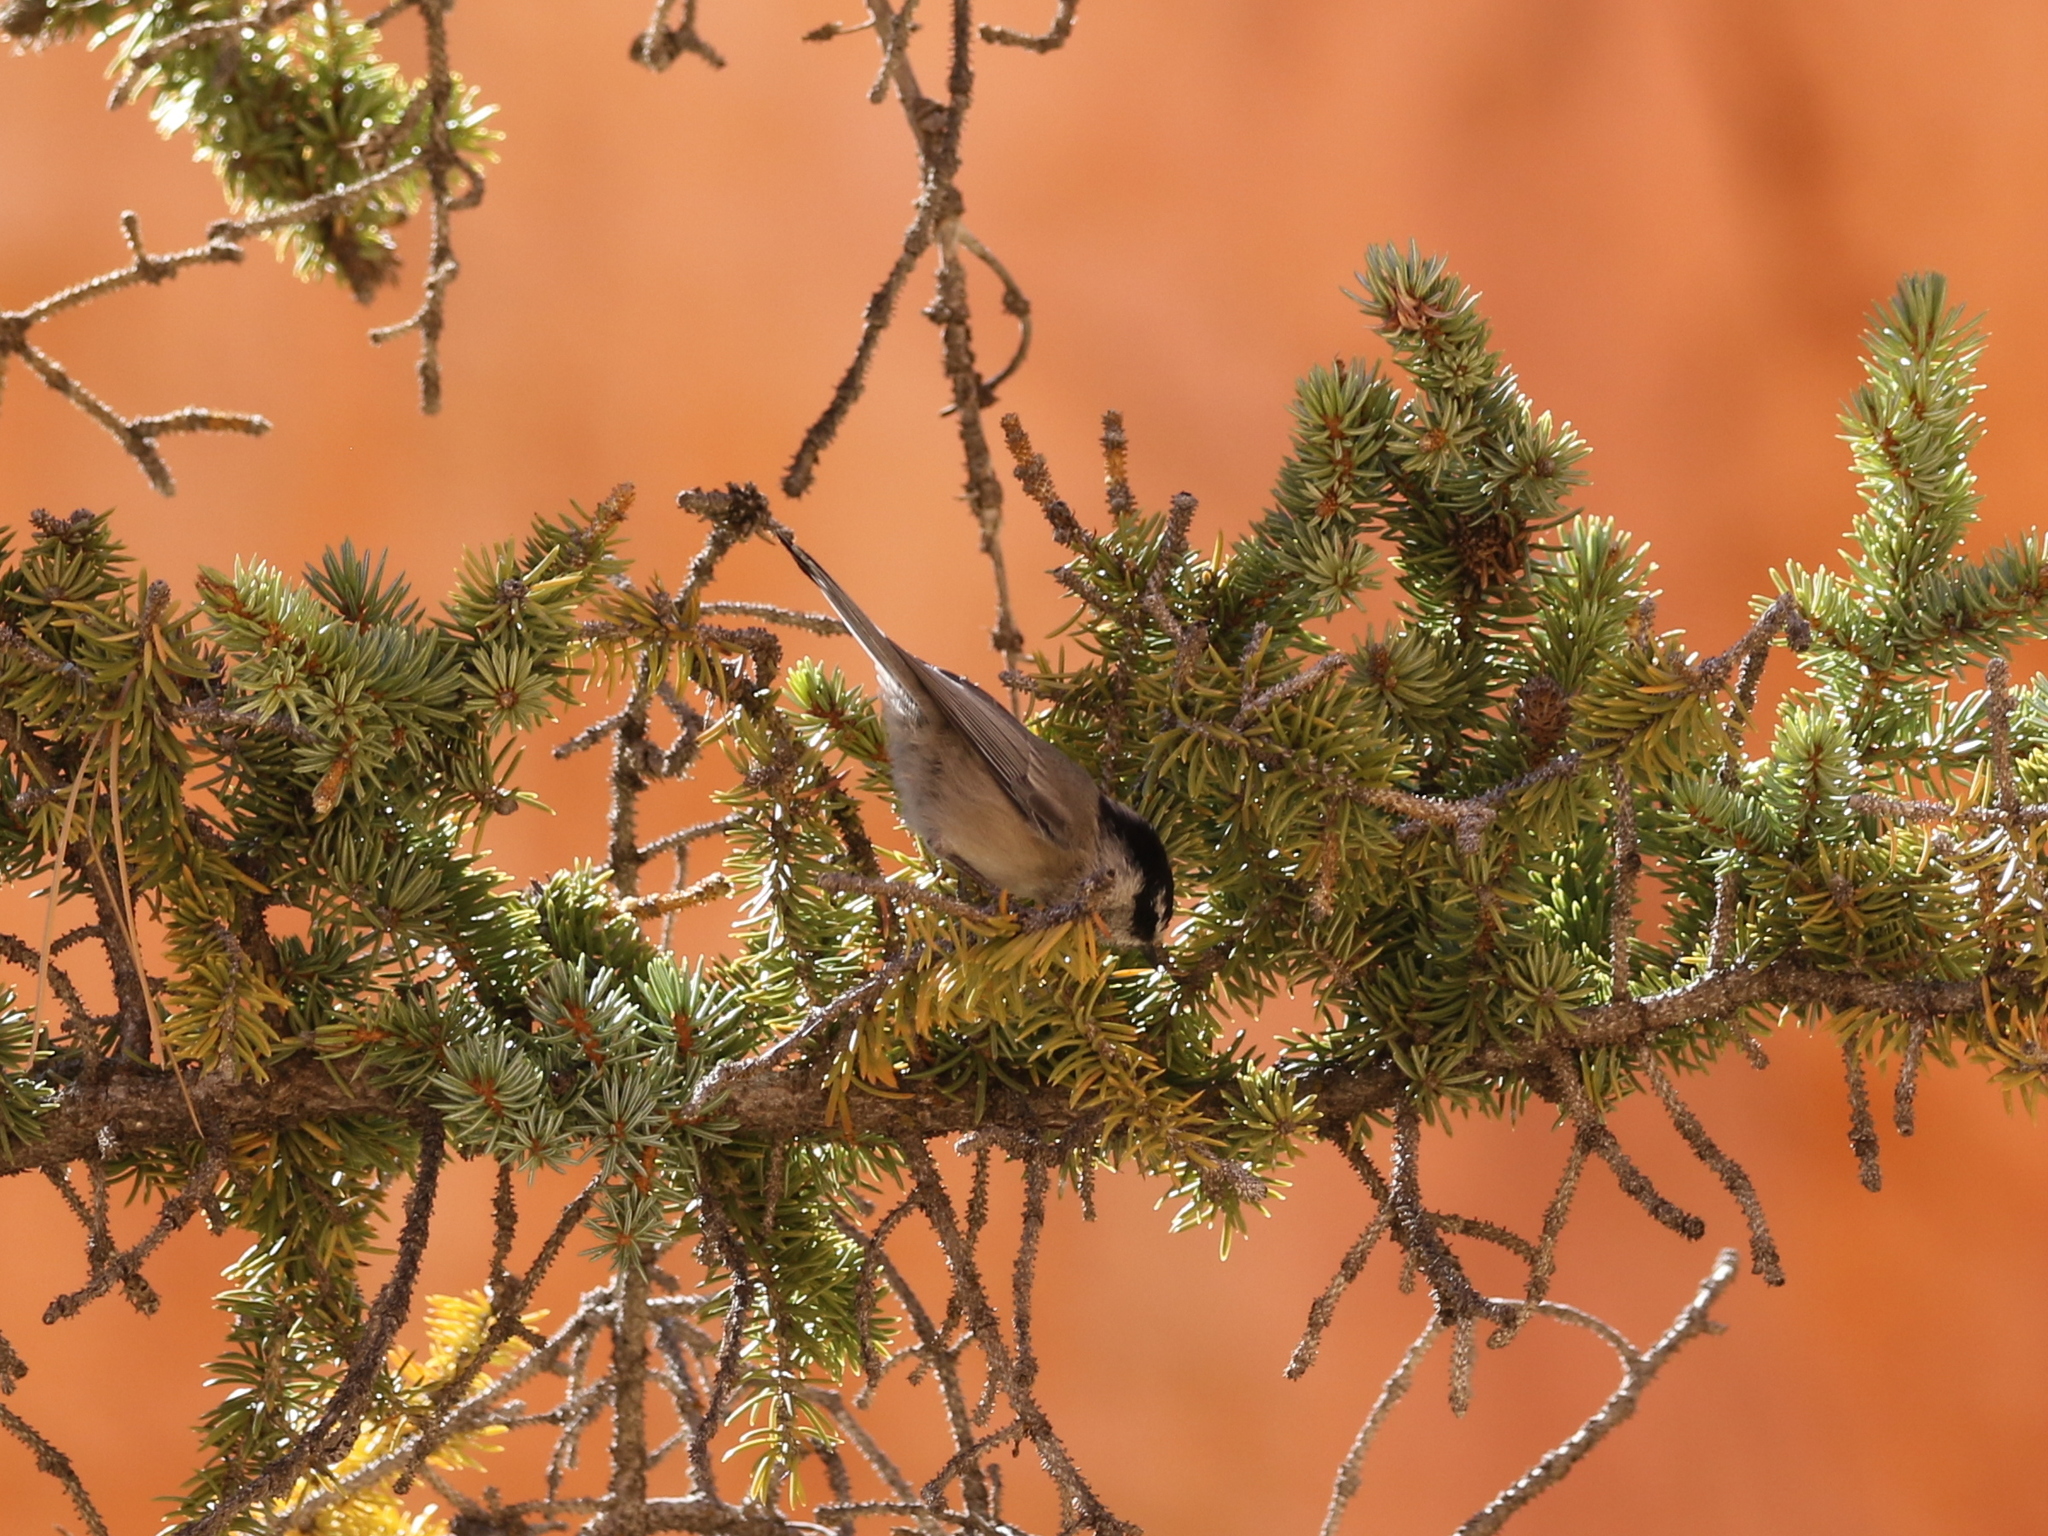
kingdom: Animalia
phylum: Chordata
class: Aves
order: Passeriformes
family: Paridae
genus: Poecile
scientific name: Poecile gambeli
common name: Mountain chickadee
